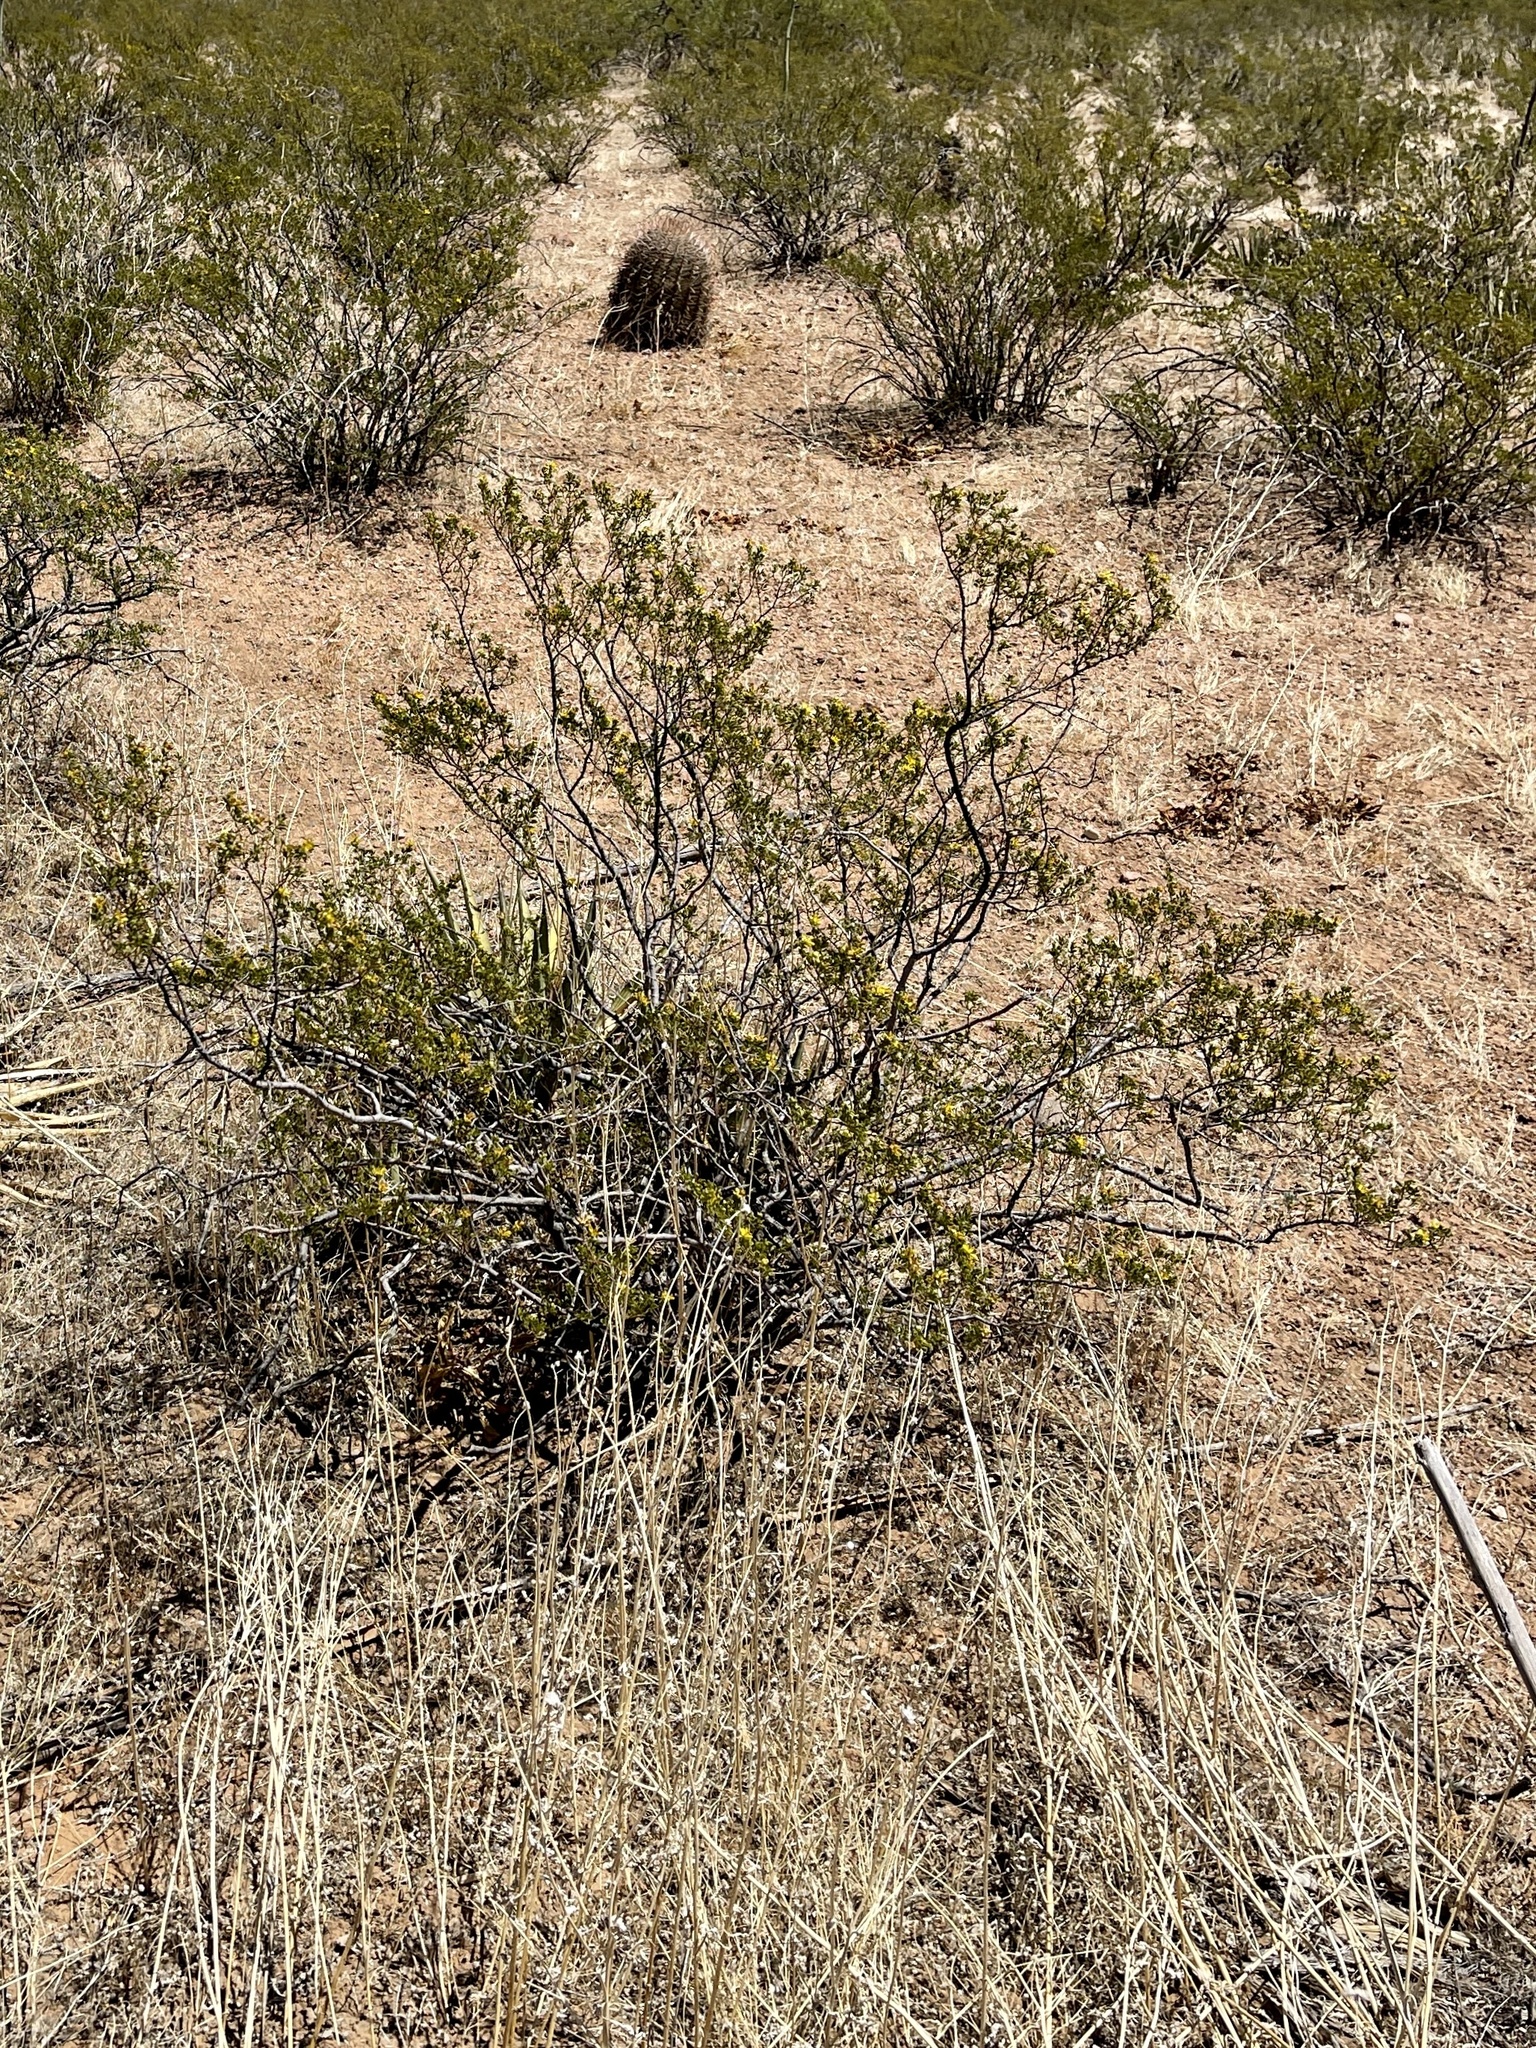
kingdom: Plantae
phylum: Tracheophyta
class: Magnoliopsida
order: Zygophyllales
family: Zygophyllaceae
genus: Larrea
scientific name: Larrea tridentata
